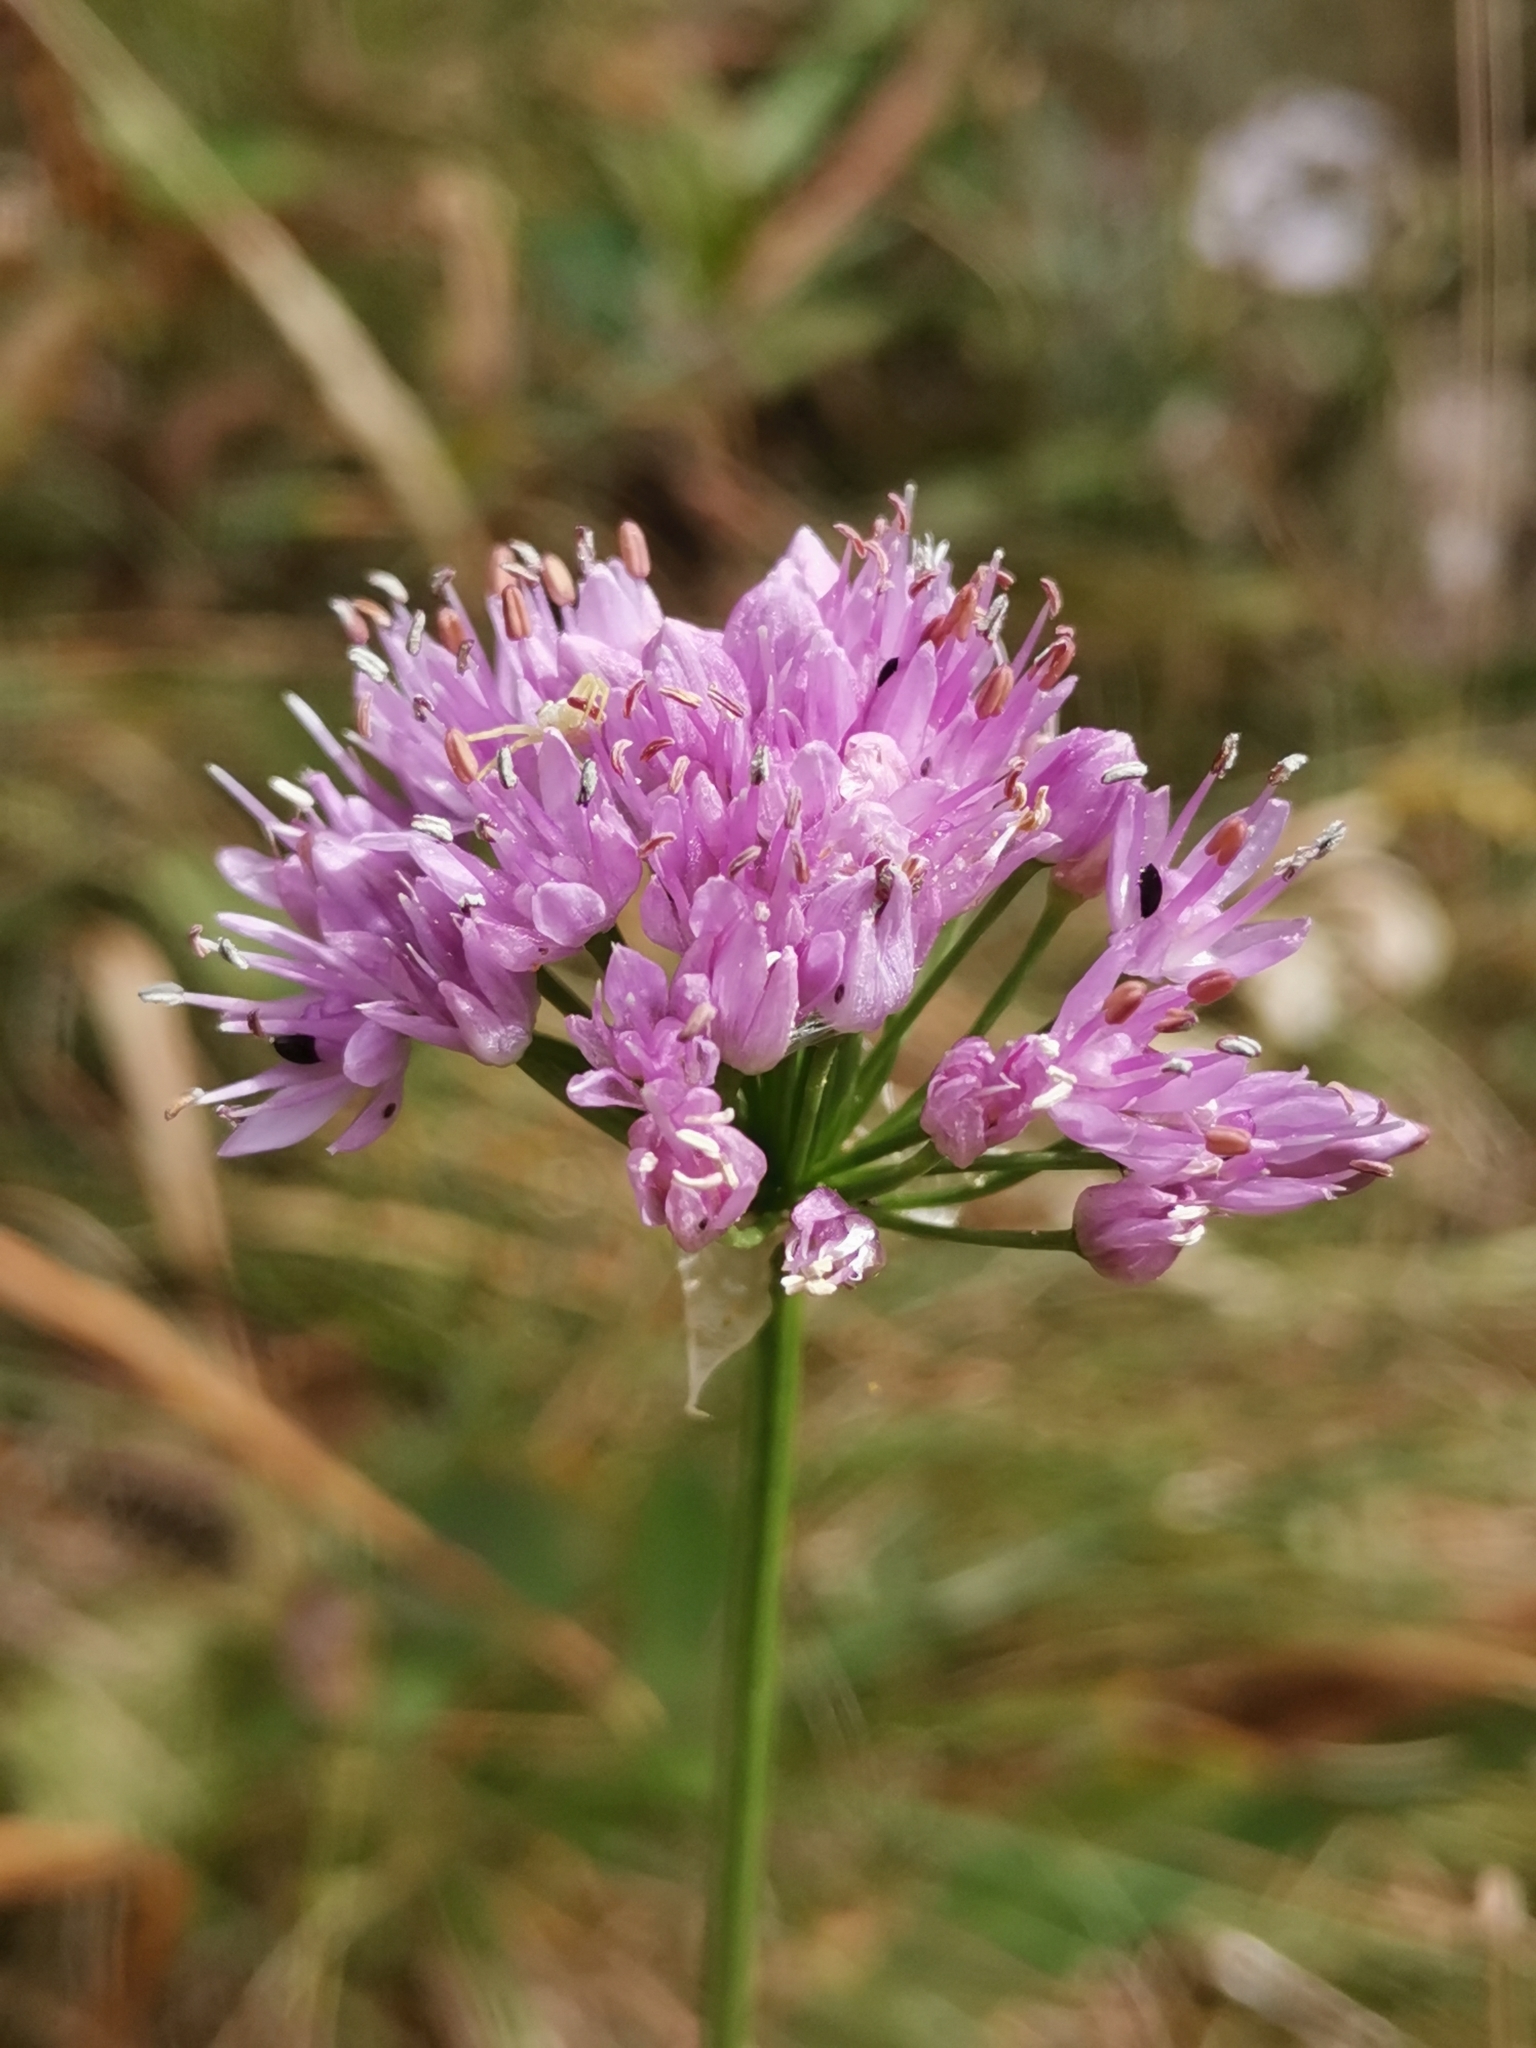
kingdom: Plantae
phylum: Tracheophyta
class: Liliopsida
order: Asparagales
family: Amaryllidaceae
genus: Allium
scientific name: Allium lusitanicum
